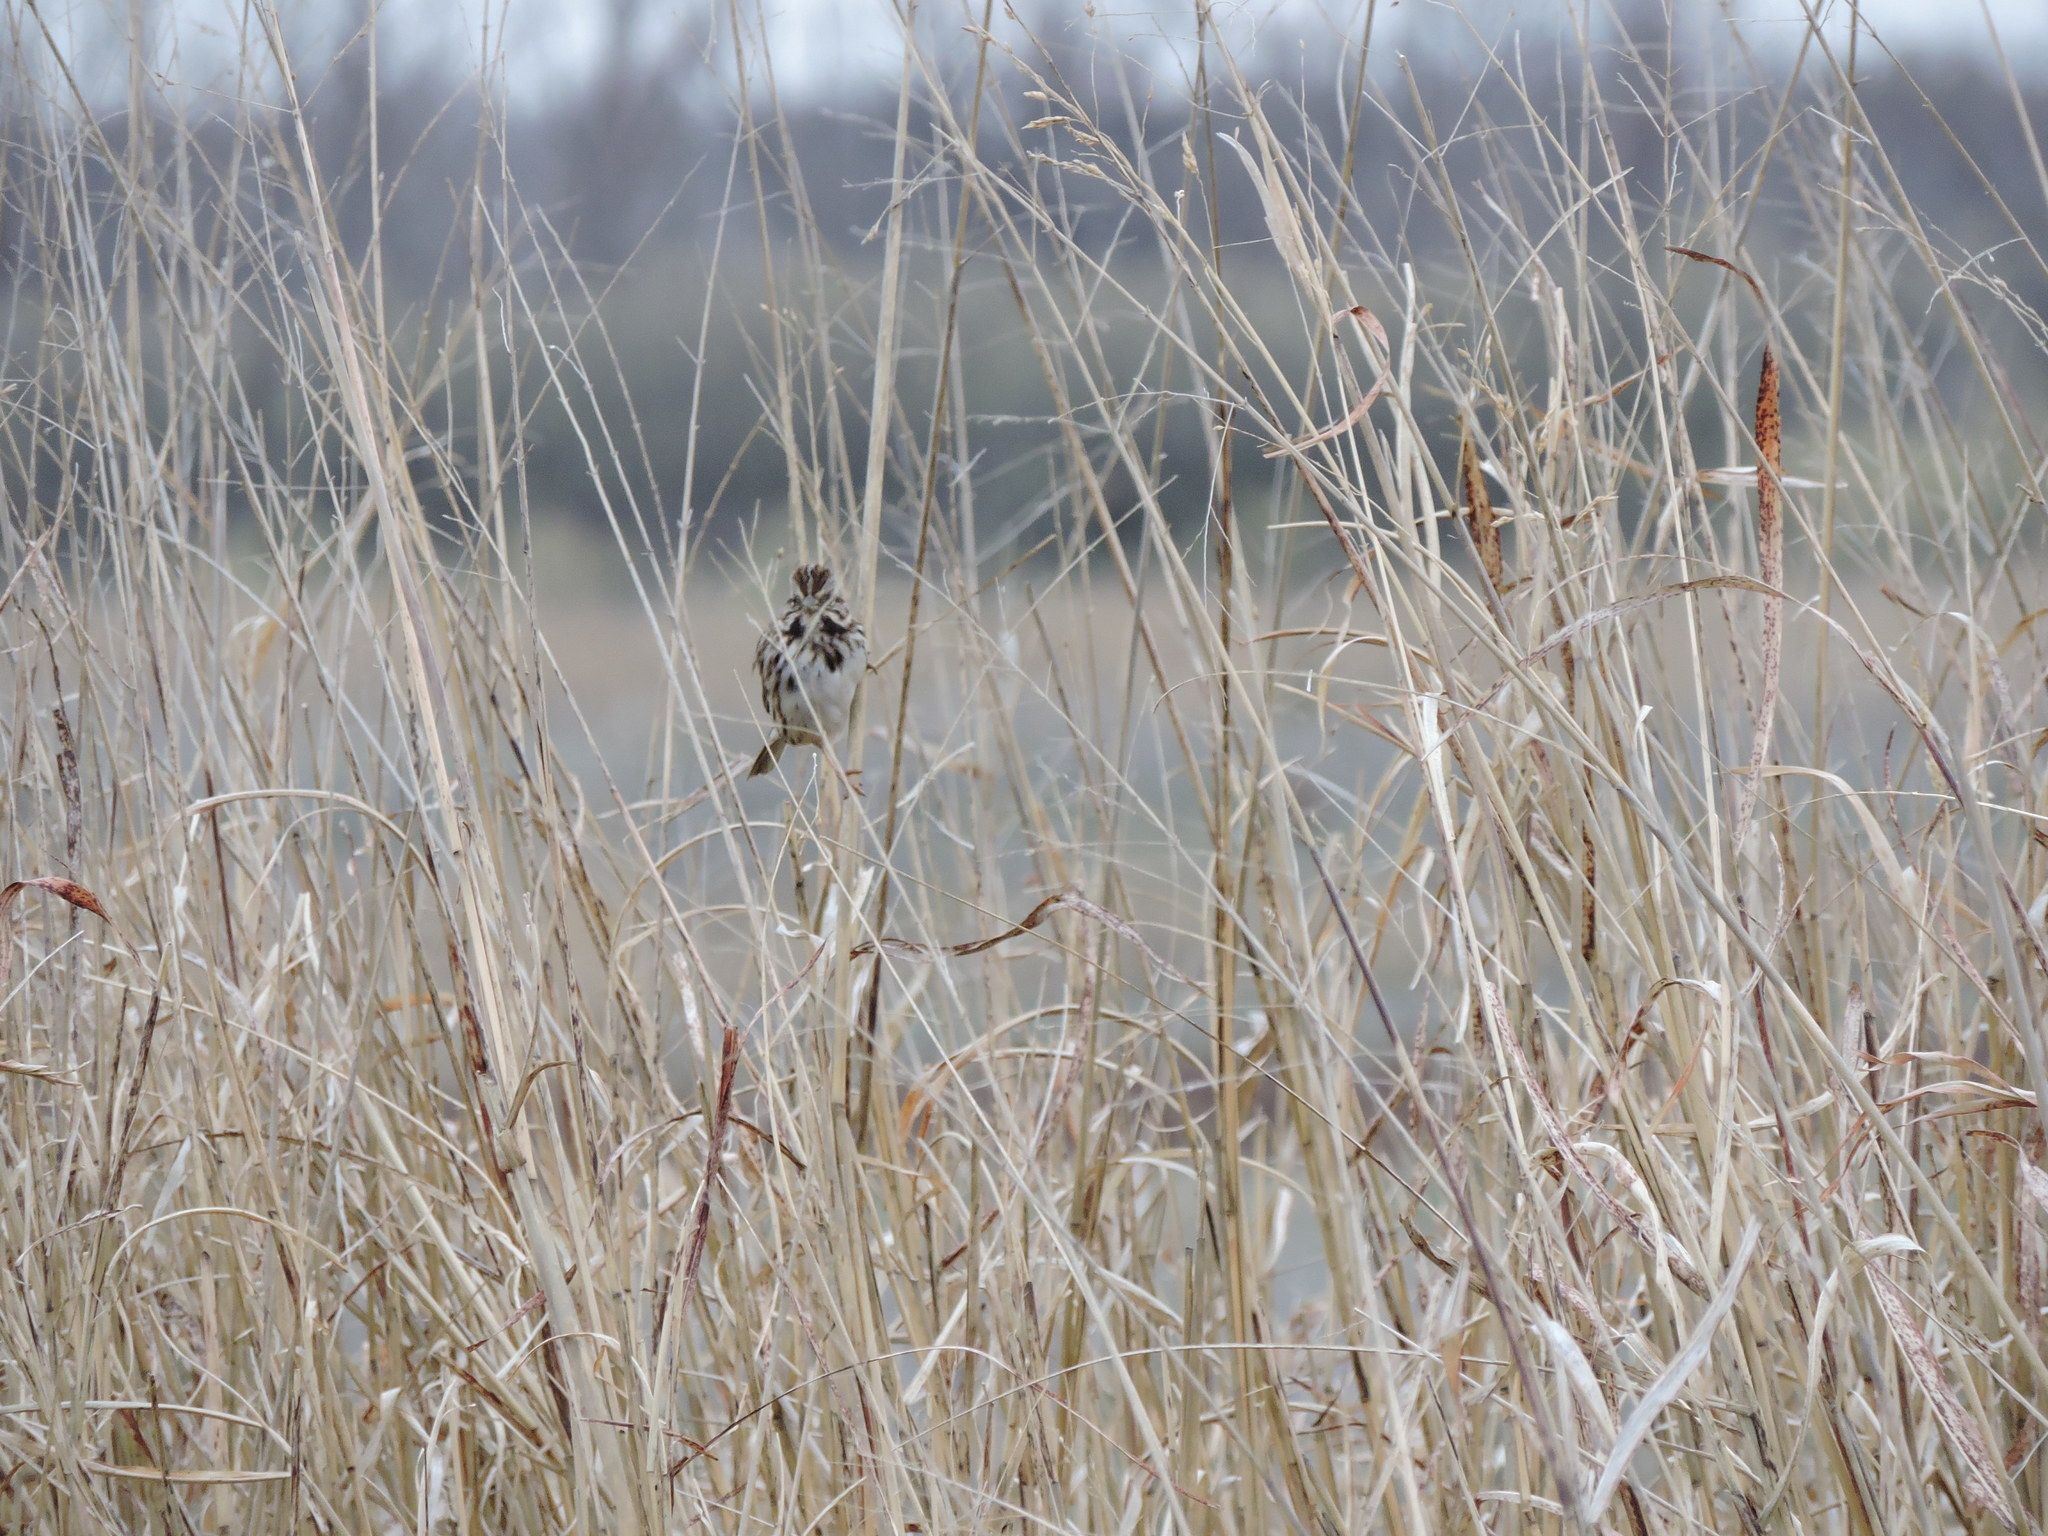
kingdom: Animalia
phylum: Chordata
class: Aves
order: Passeriformes
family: Passerellidae
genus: Melospiza
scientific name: Melospiza melodia
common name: Song sparrow
